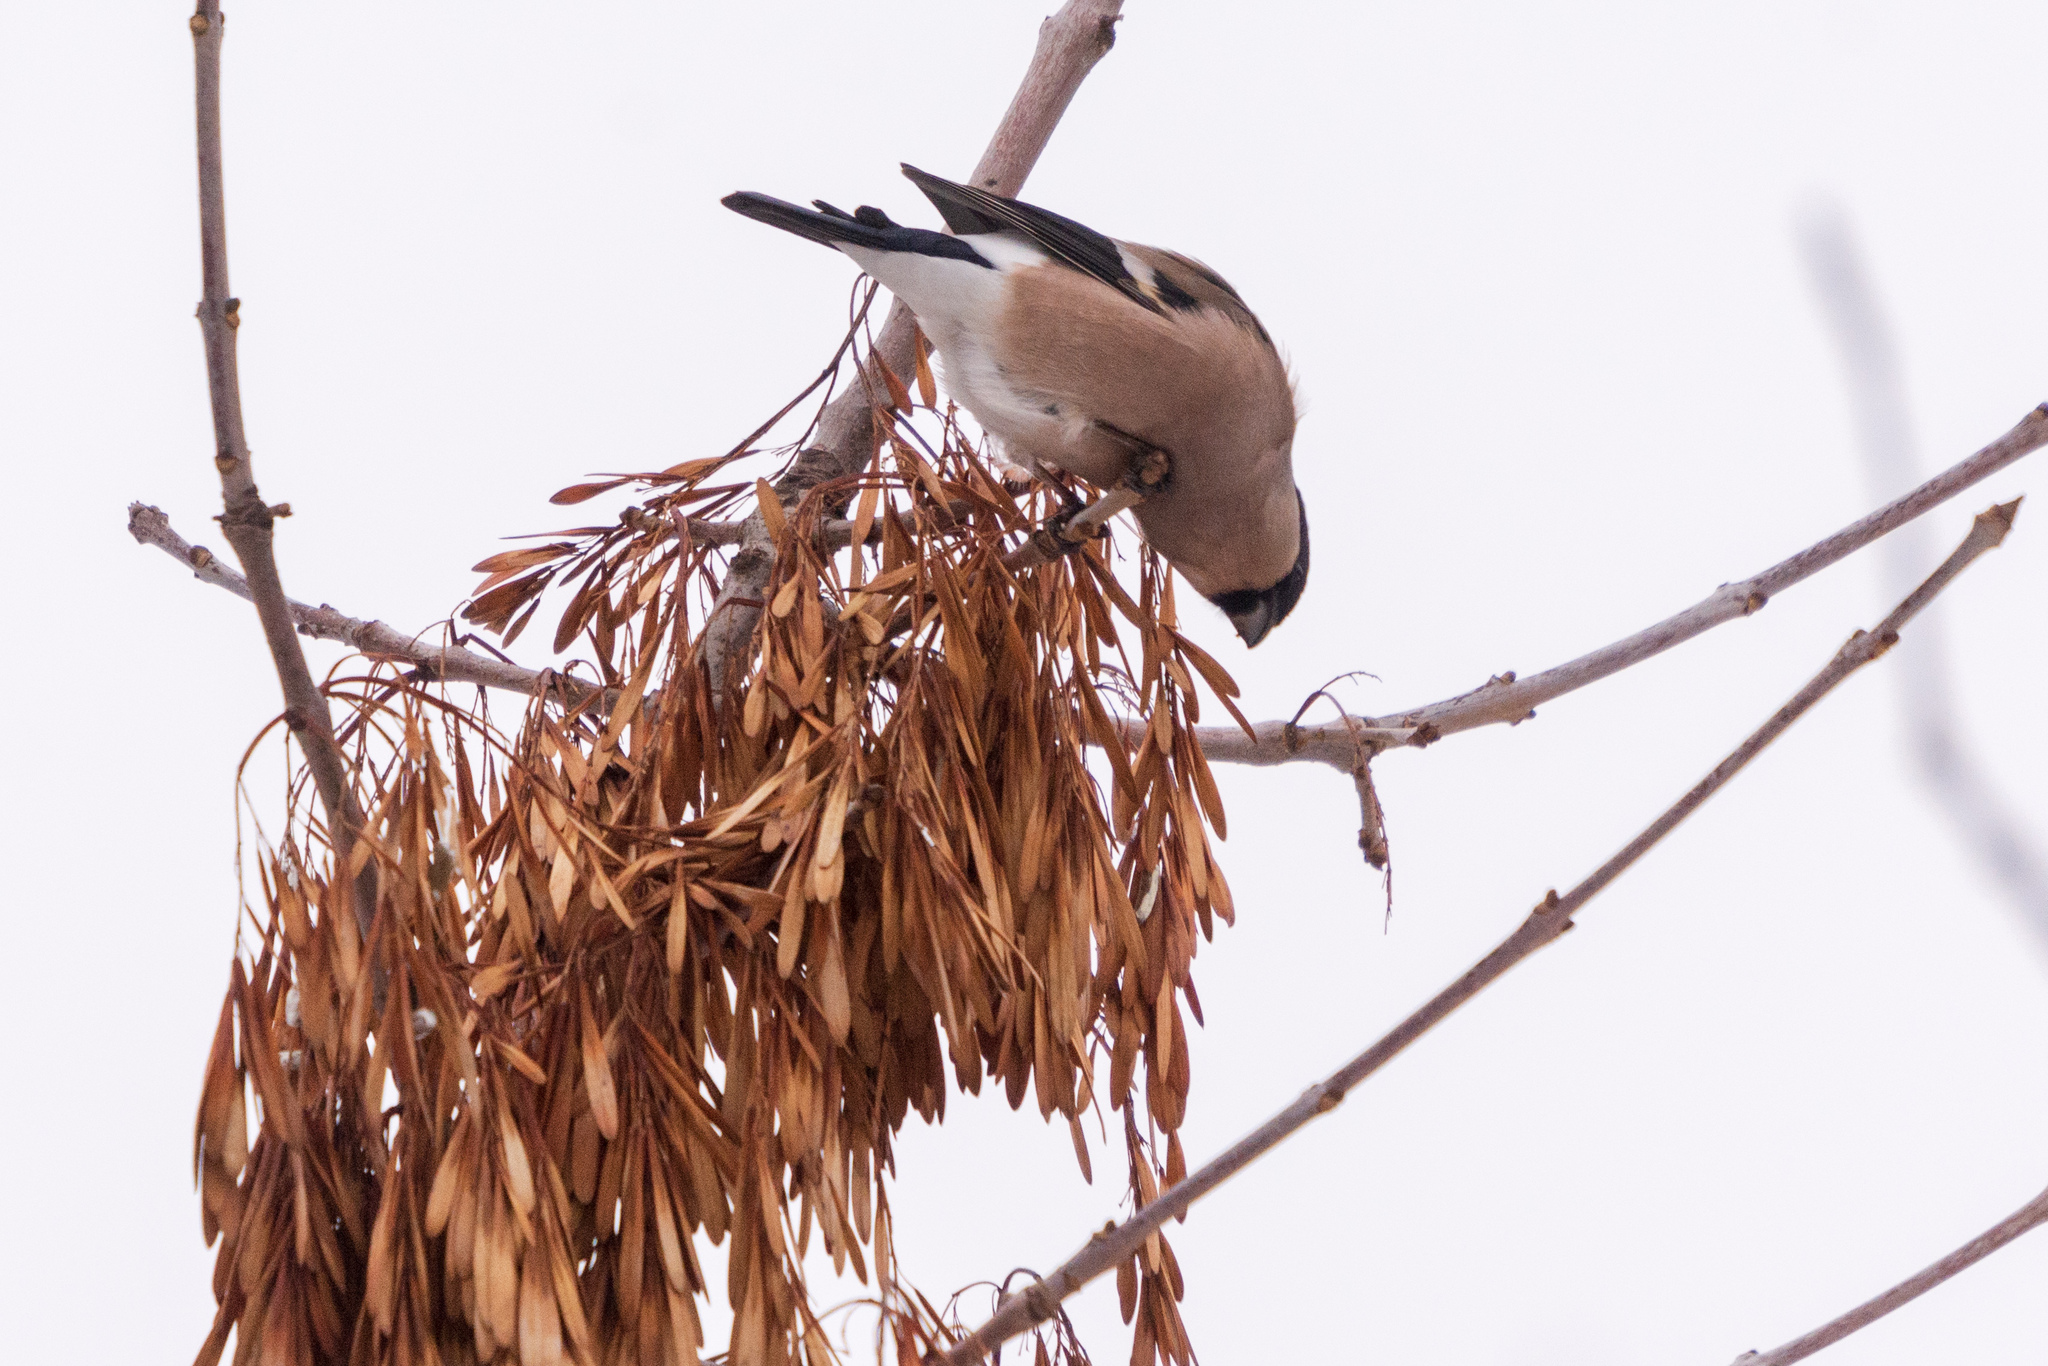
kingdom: Animalia
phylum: Chordata
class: Aves
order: Passeriformes
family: Fringillidae
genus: Pyrrhula
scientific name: Pyrrhula pyrrhula
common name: Eurasian bullfinch
